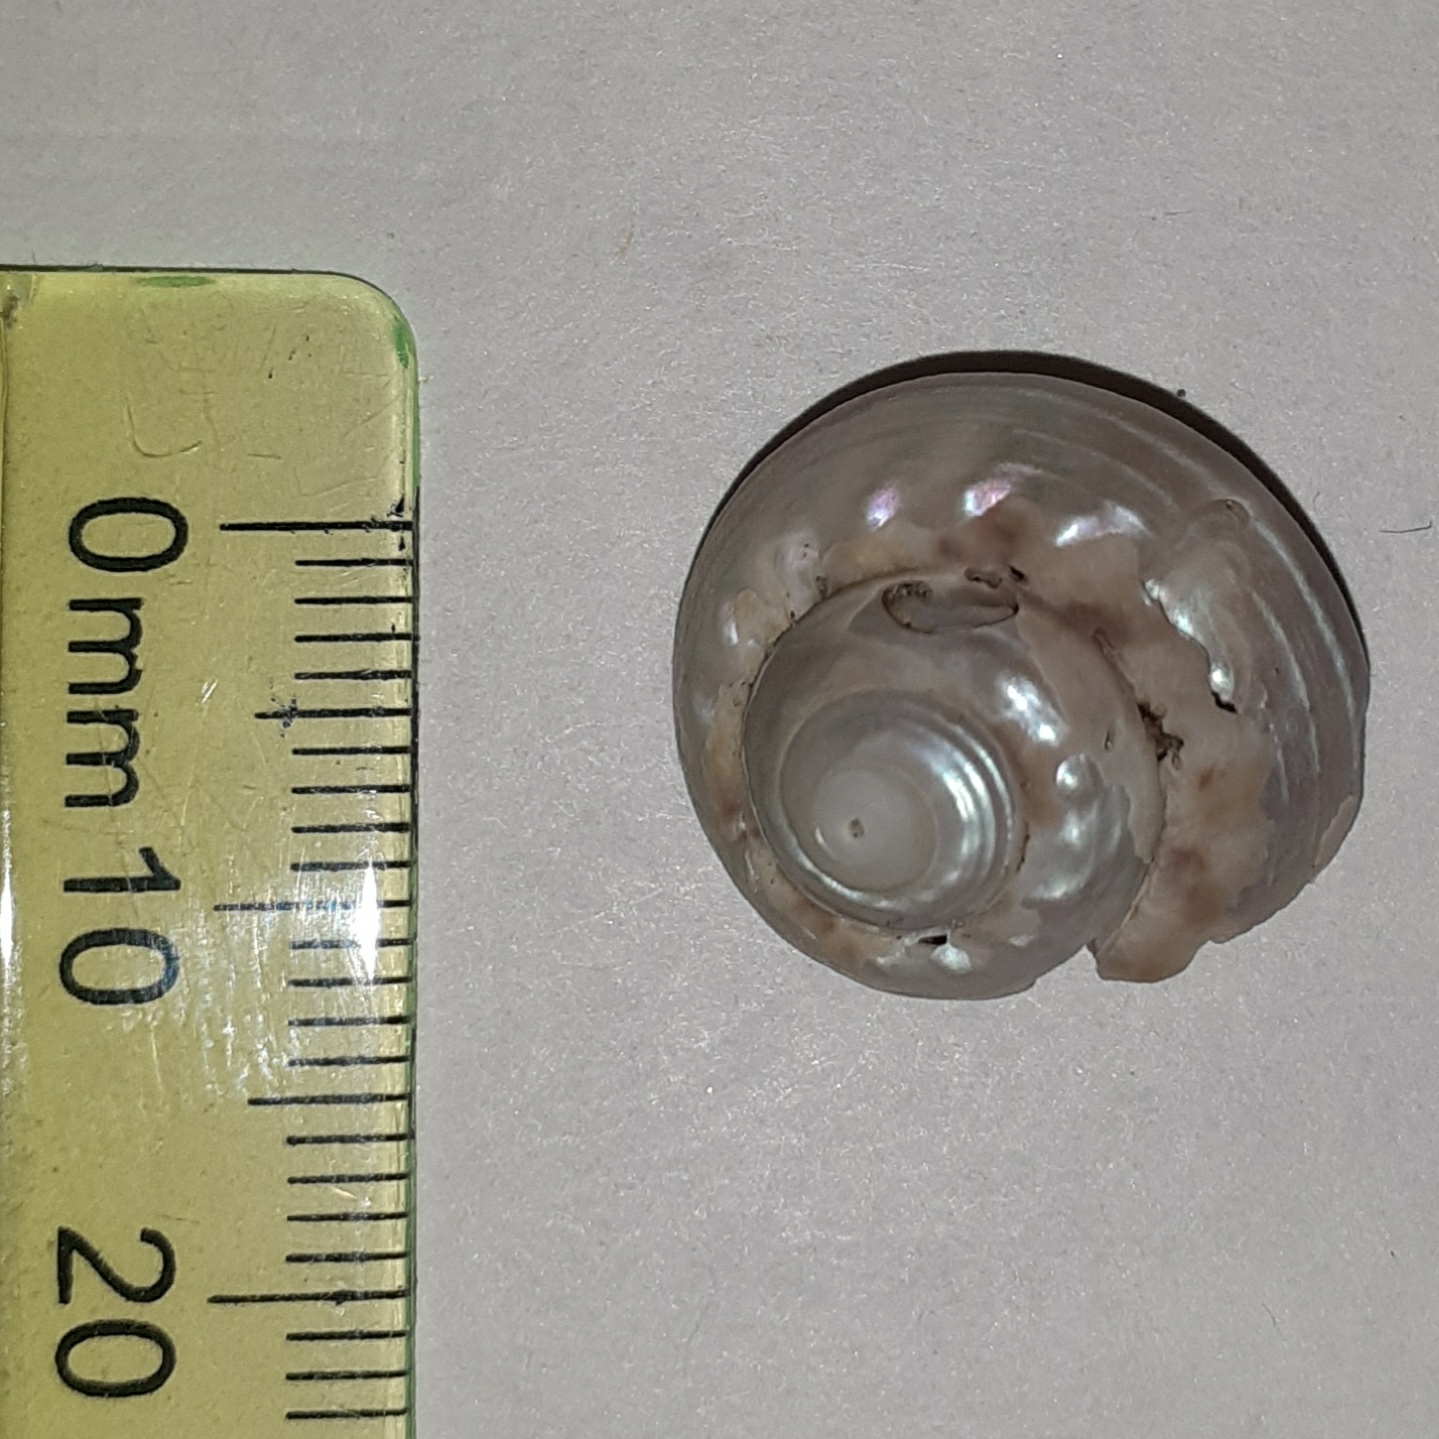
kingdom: Animalia
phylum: Mollusca
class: Gastropoda
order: Trochida
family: Trochidae
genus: Gibbula
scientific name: Gibbula magus
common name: Turban top shell
